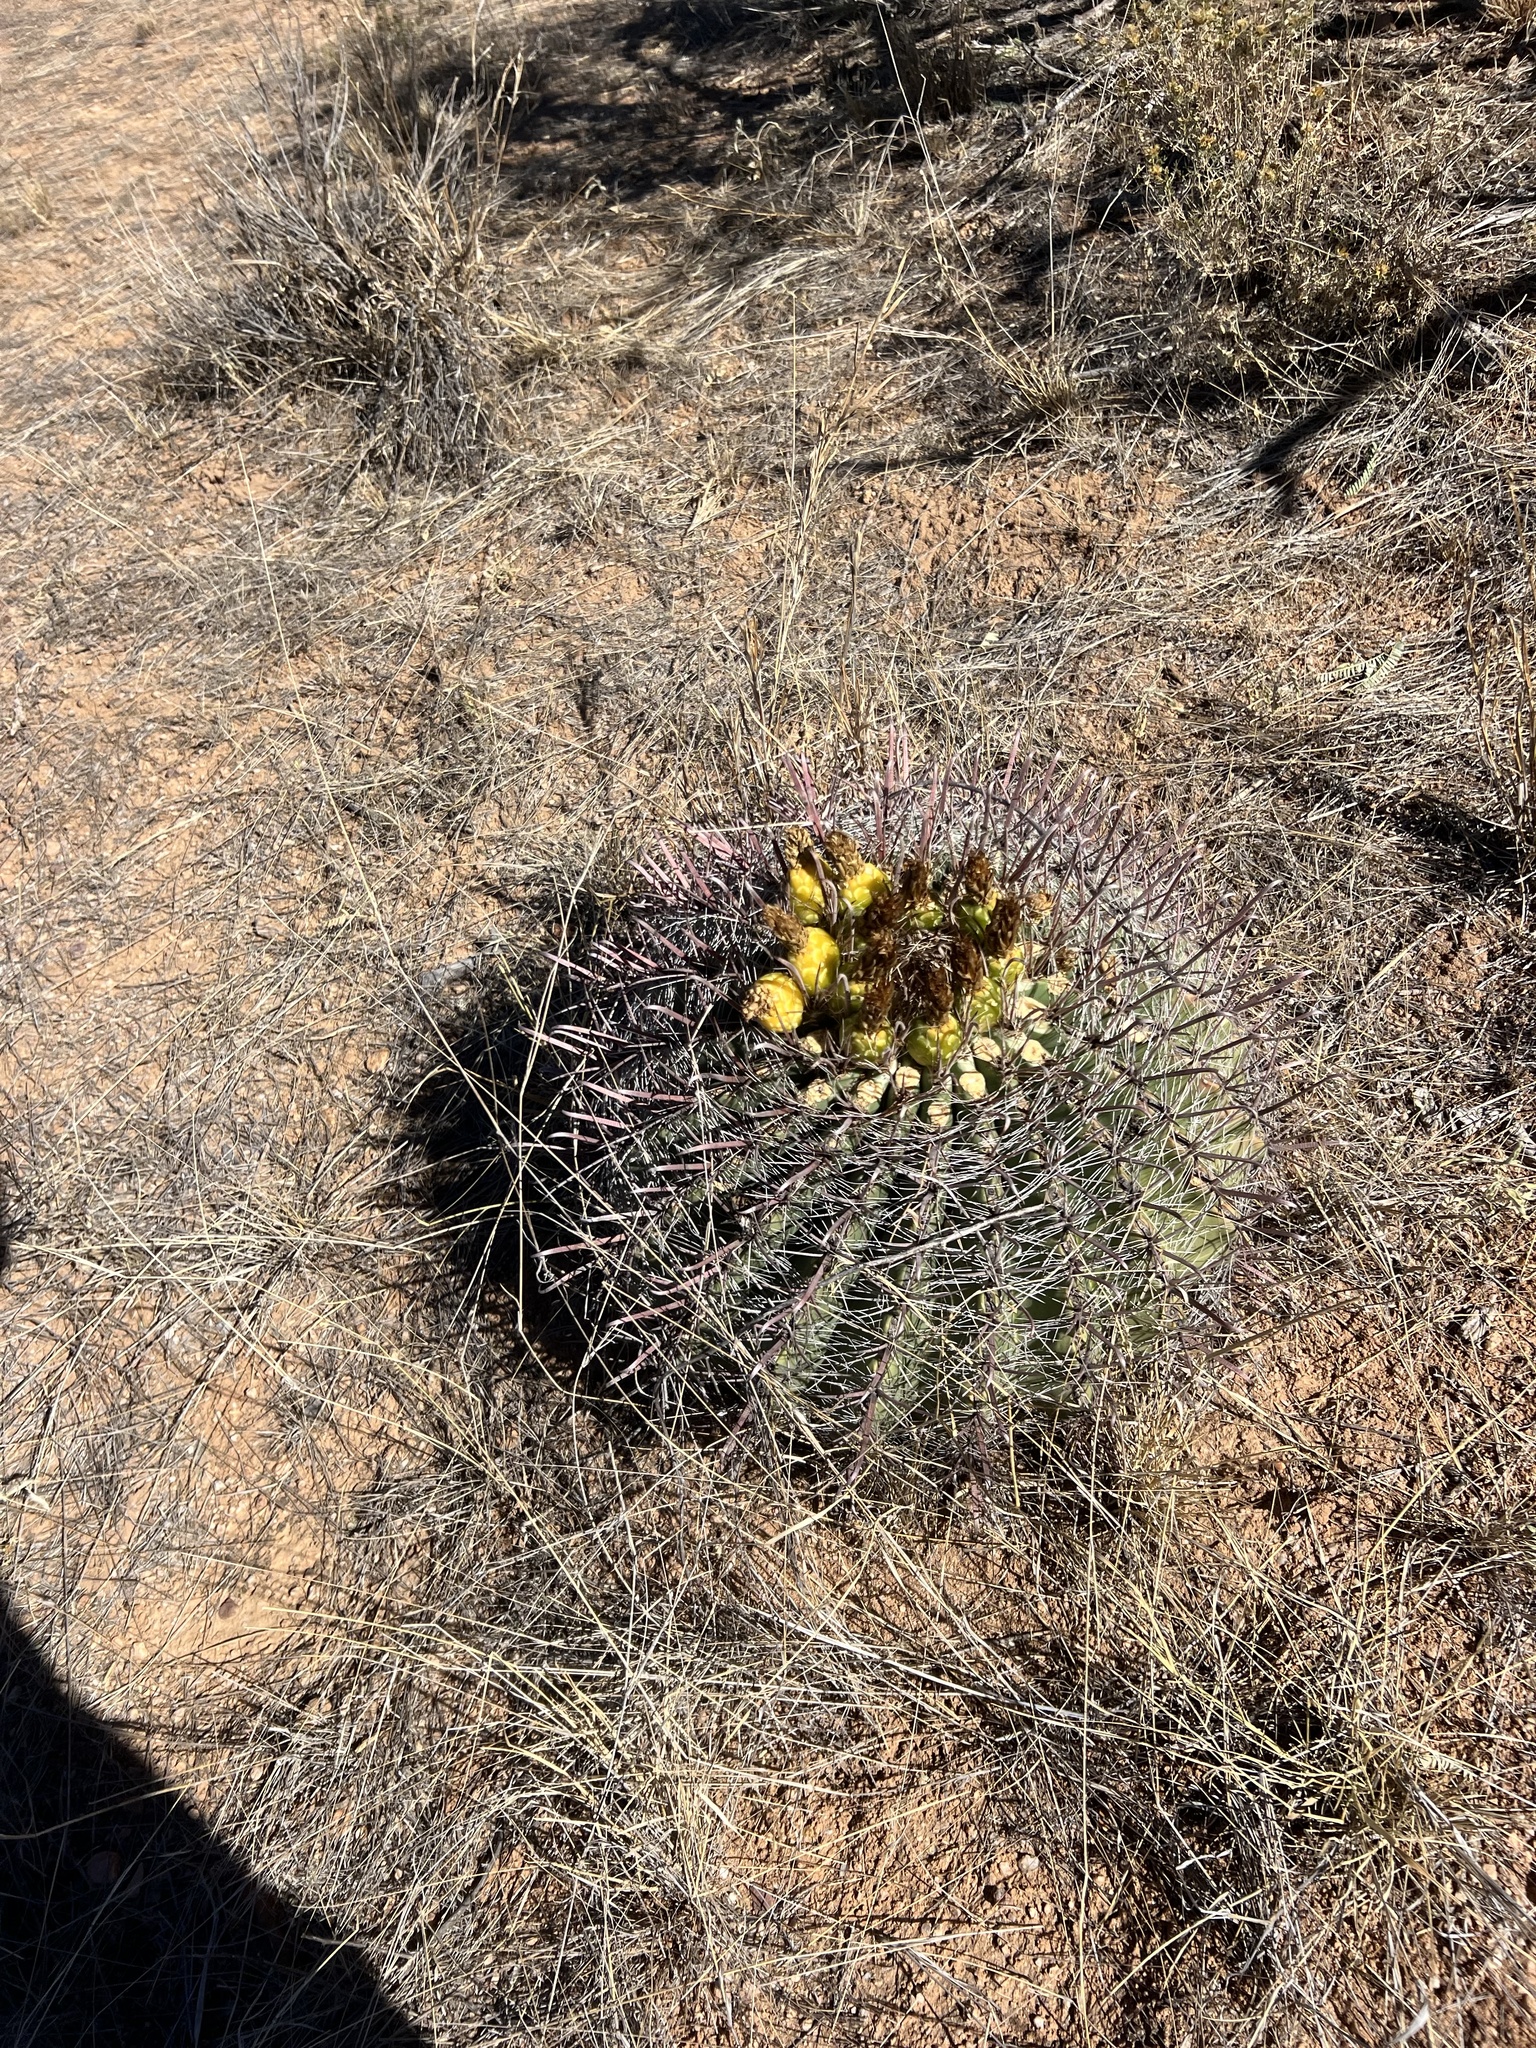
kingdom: Plantae
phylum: Tracheophyta
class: Magnoliopsida
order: Caryophyllales
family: Cactaceae
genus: Ferocactus
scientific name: Ferocactus wislizeni
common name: Candy barrel cactus
